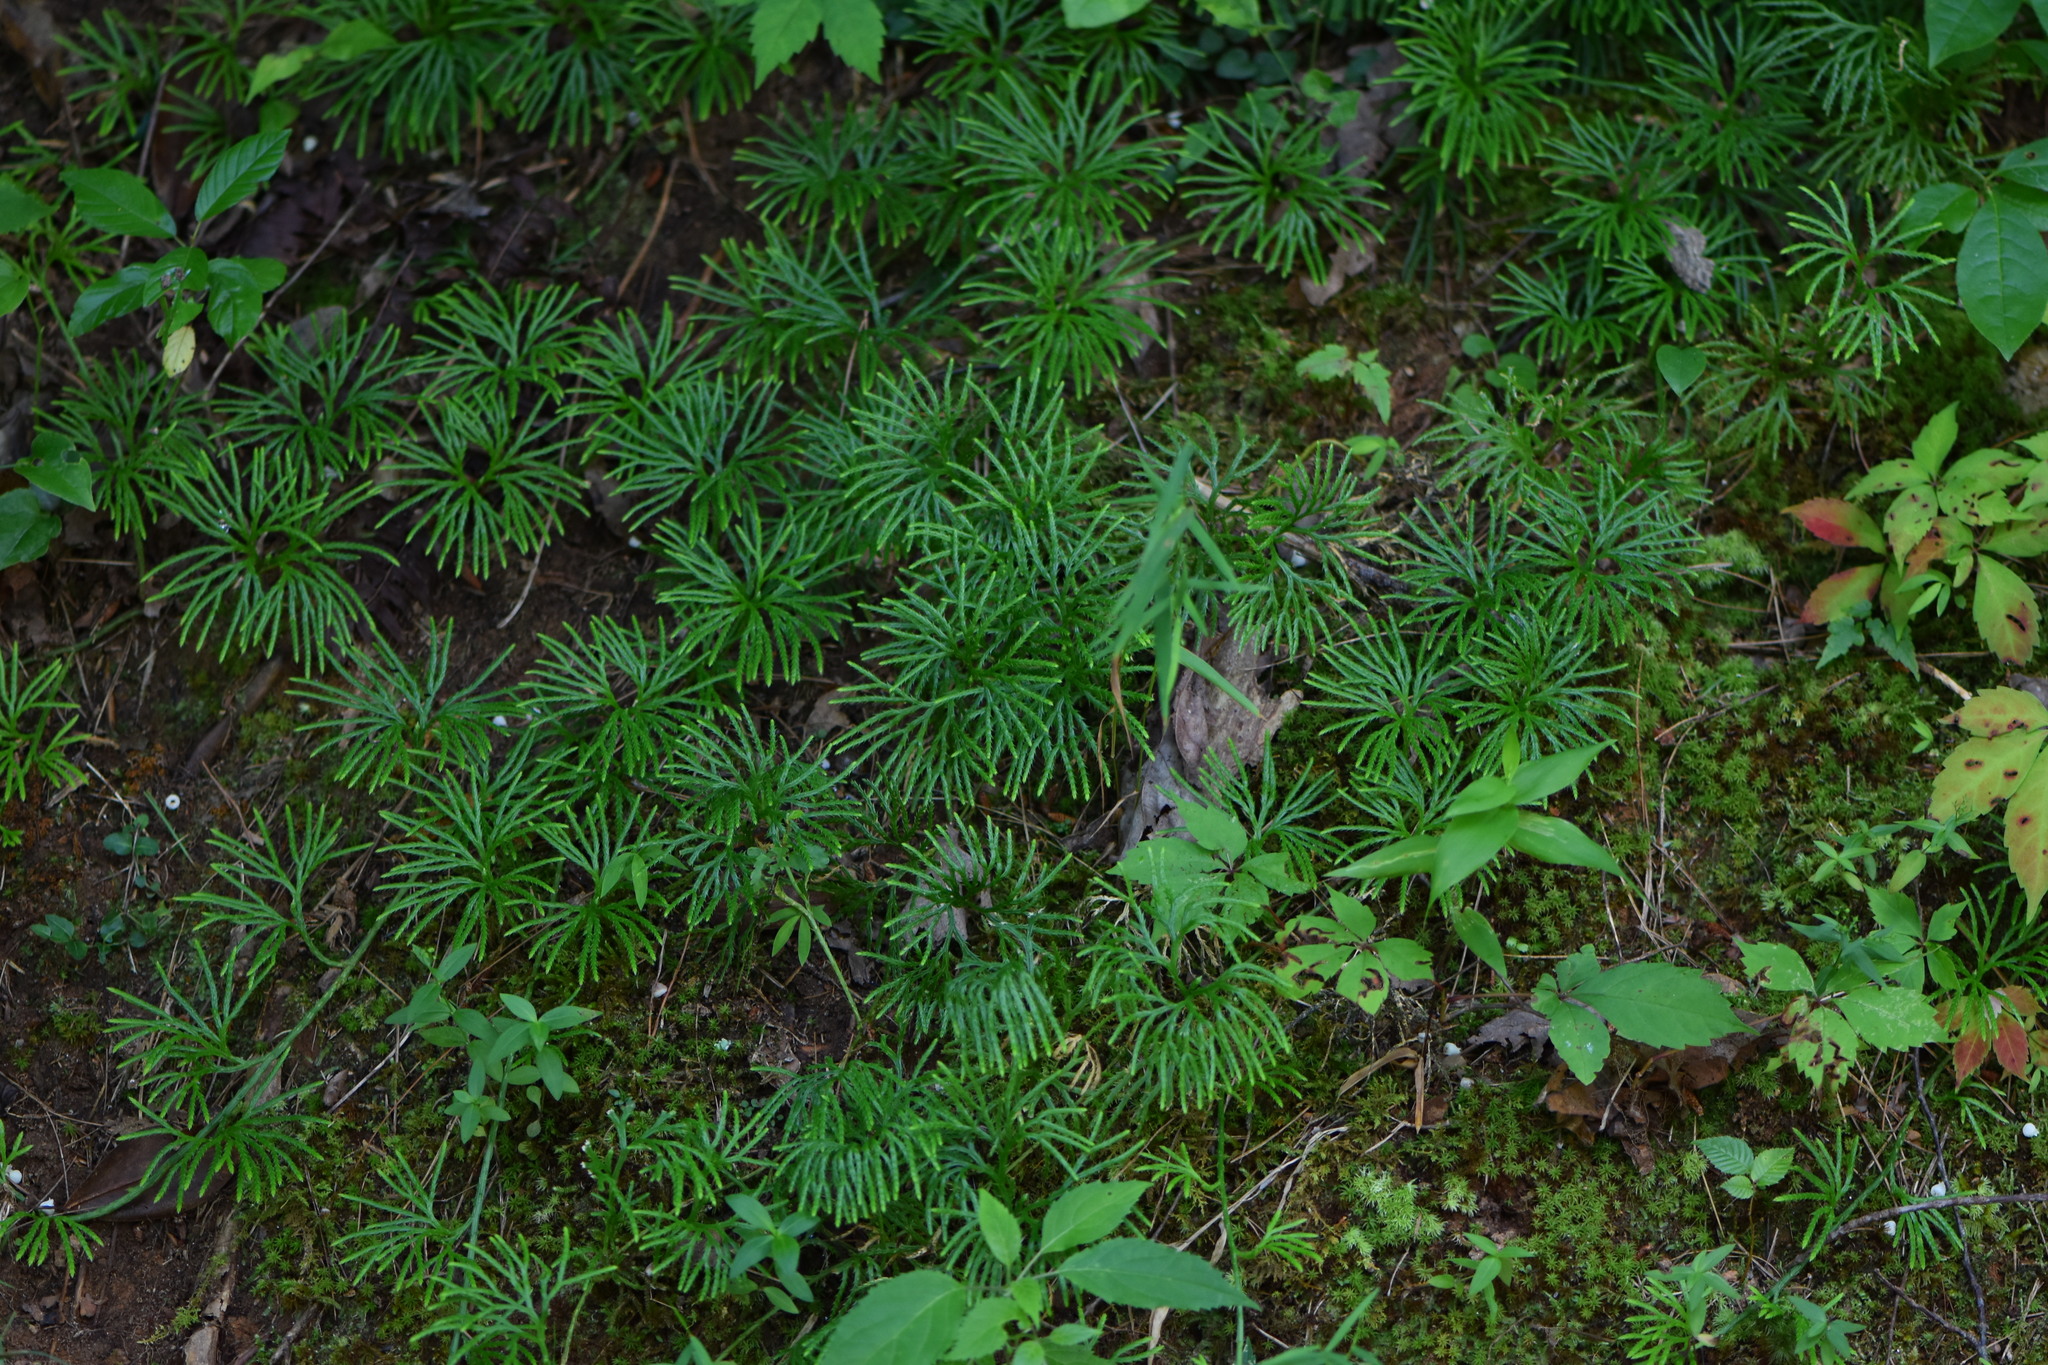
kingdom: Plantae
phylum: Tracheophyta
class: Lycopodiopsida
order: Lycopodiales
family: Lycopodiaceae
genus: Diphasiastrum
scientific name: Diphasiastrum digitatum
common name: Southern running-pine
